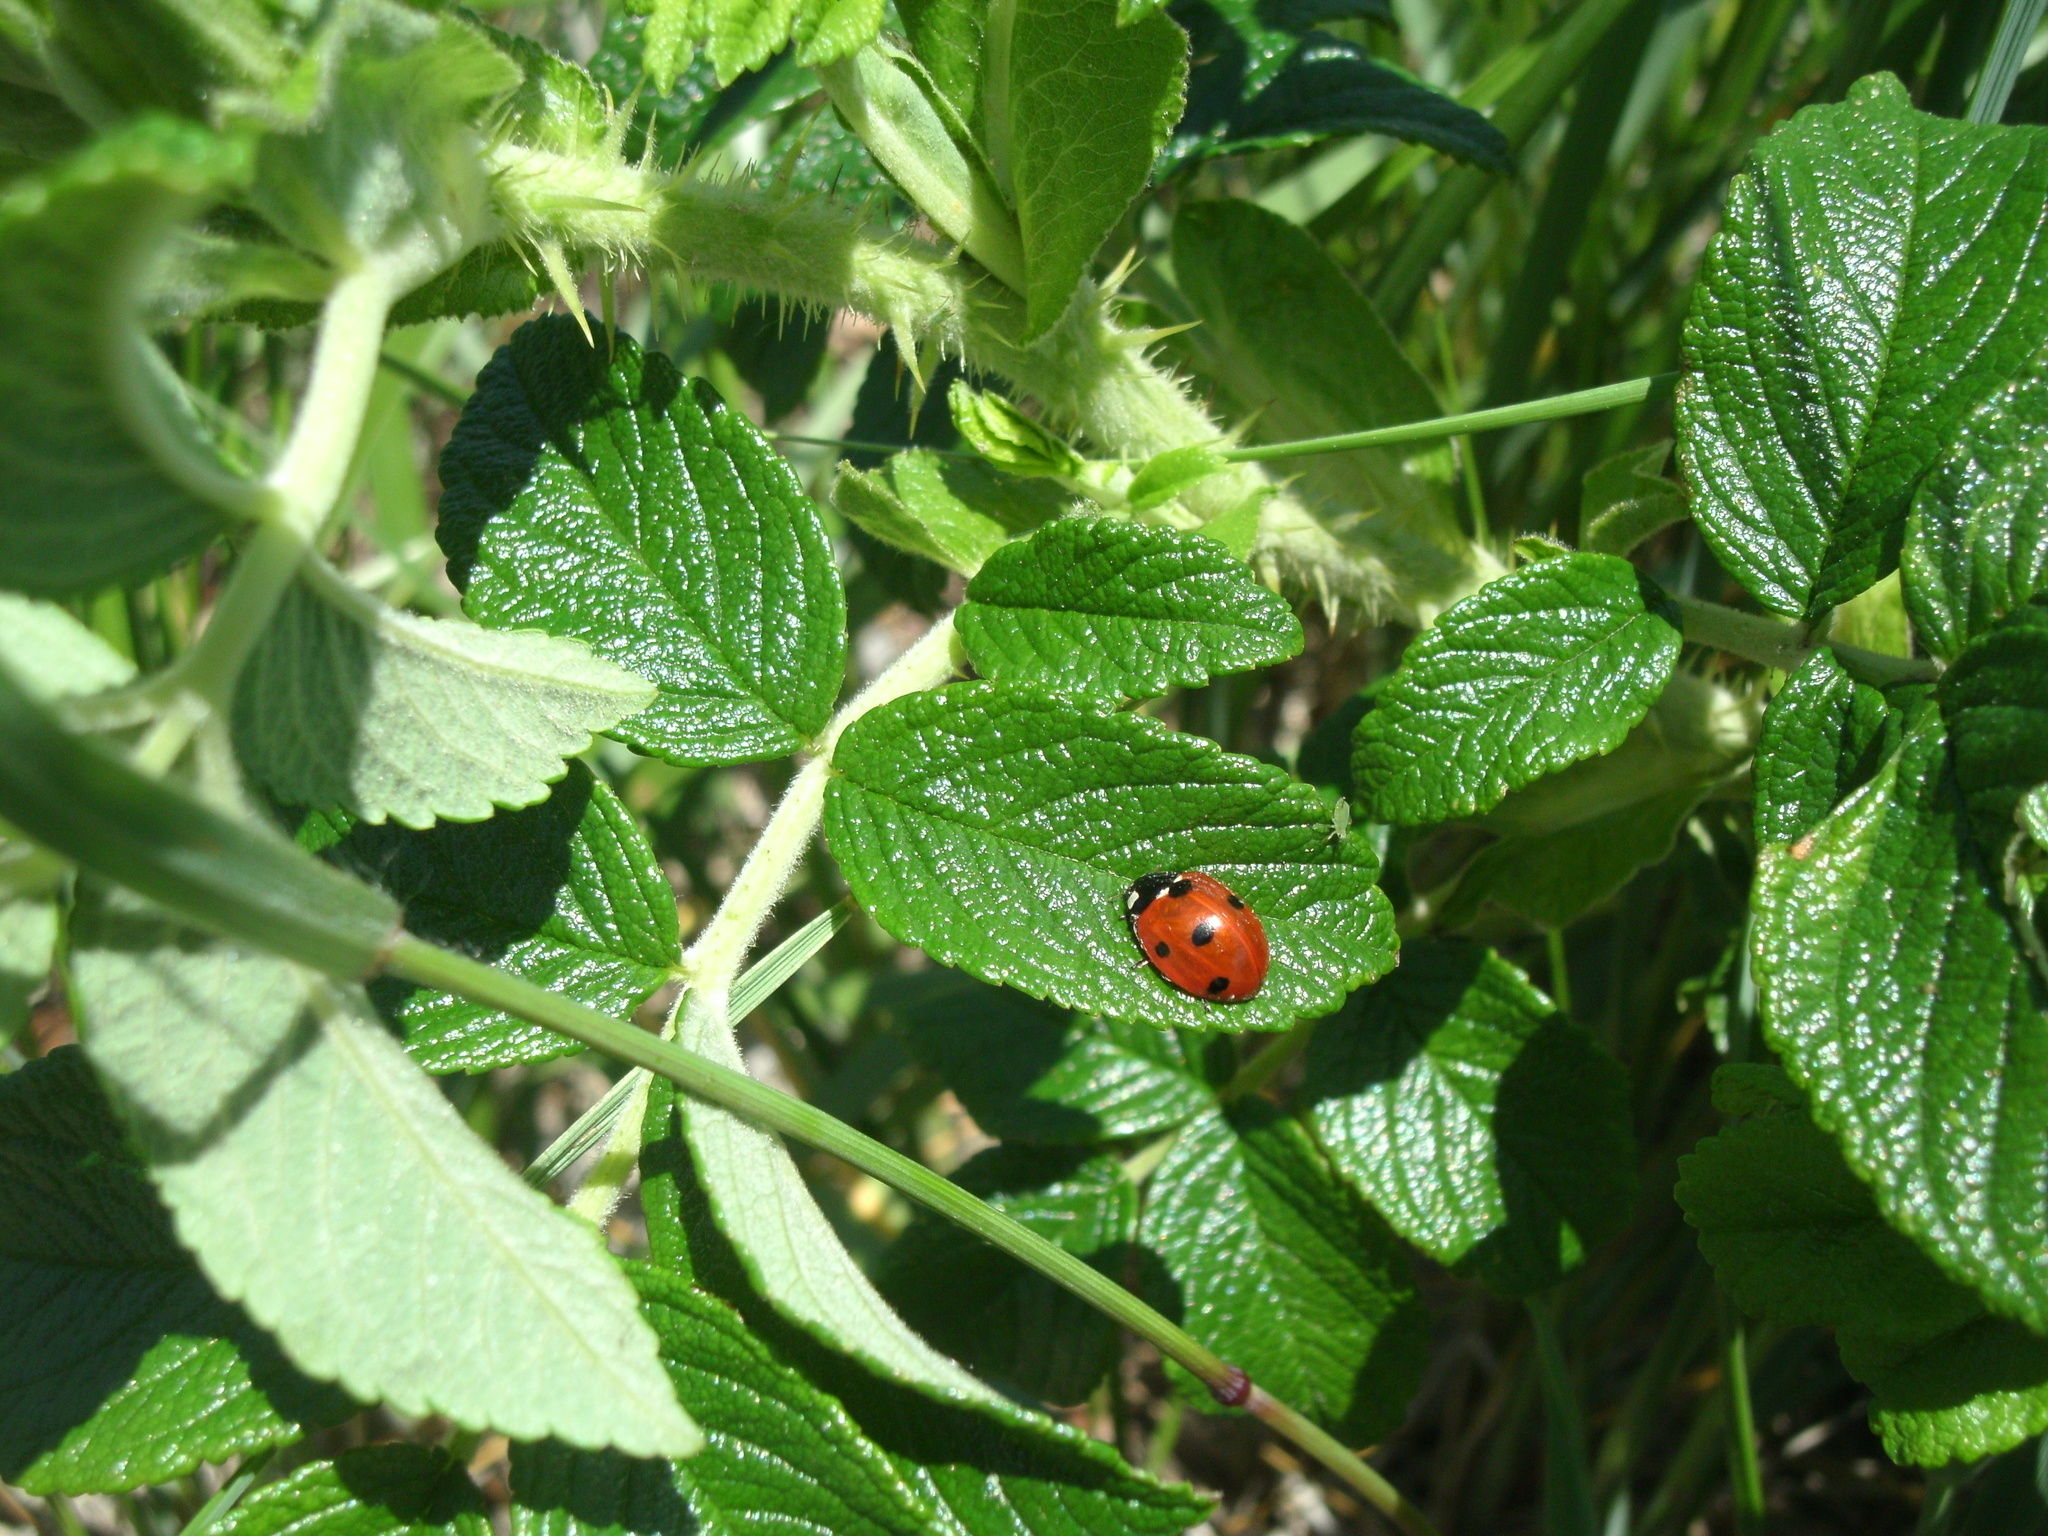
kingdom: Animalia
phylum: Arthropoda
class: Insecta
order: Coleoptera
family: Coccinellidae
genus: Coccinella
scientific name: Coccinella septempunctata
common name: Sevenspotted lady beetle
